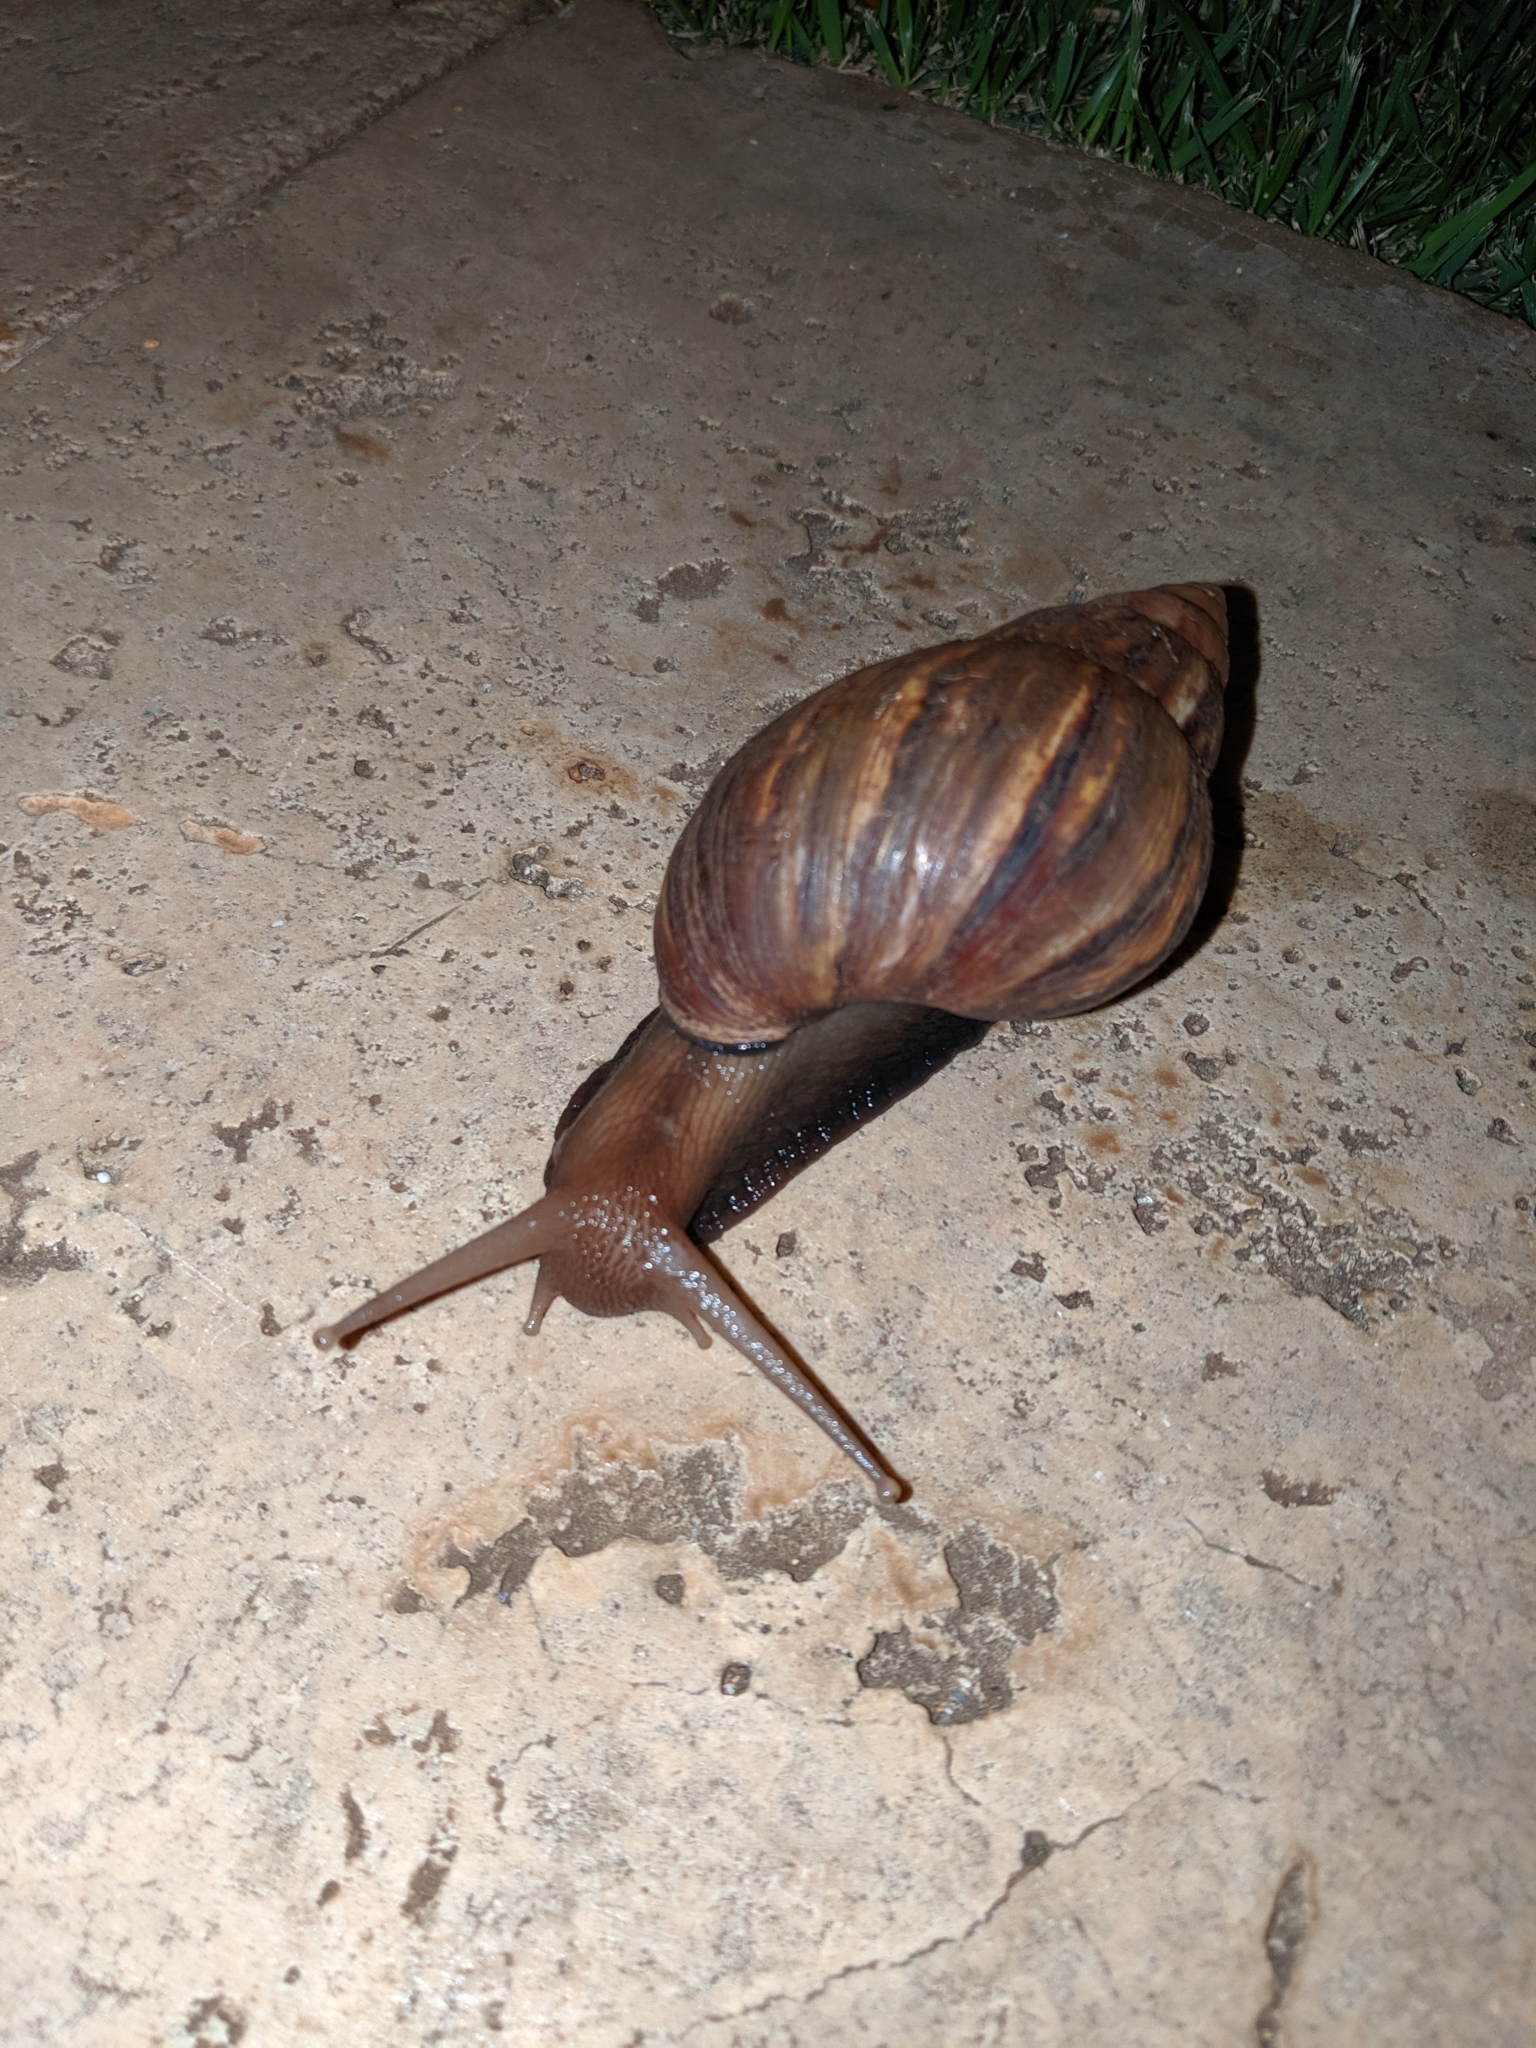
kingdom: Animalia
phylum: Mollusca
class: Gastropoda
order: Stylommatophora
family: Achatinidae
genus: Lissachatina
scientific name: Lissachatina fulica
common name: Giant african snail
